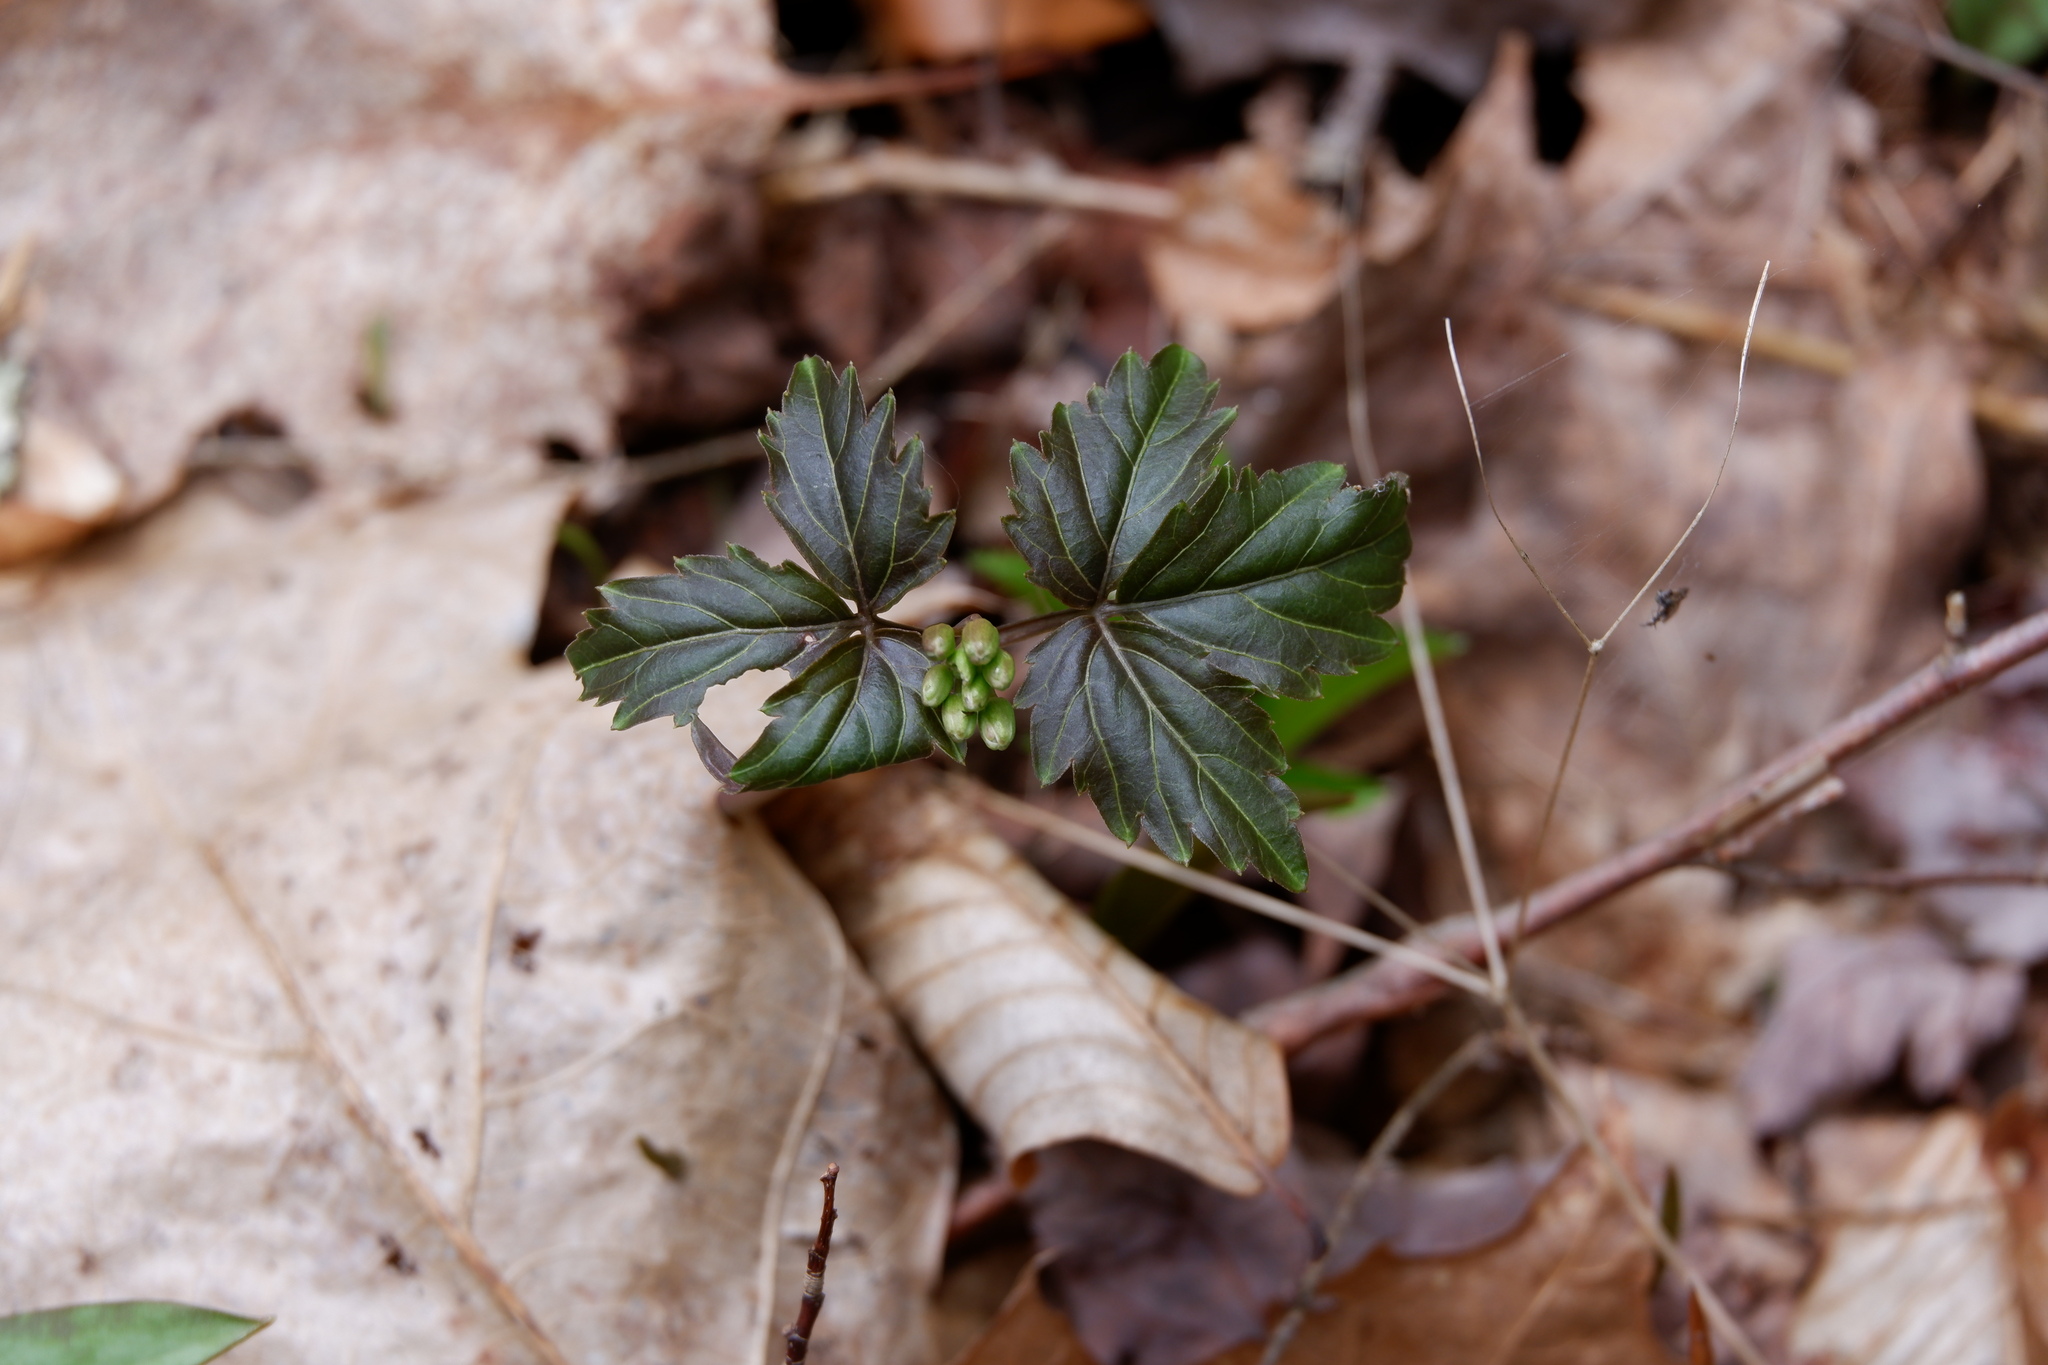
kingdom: Plantae
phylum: Tracheophyta
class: Magnoliopsida
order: Brassicales
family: Brassicaceae
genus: Cardamine
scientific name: Cardamine diphylla
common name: Broad-leaved toothwort
